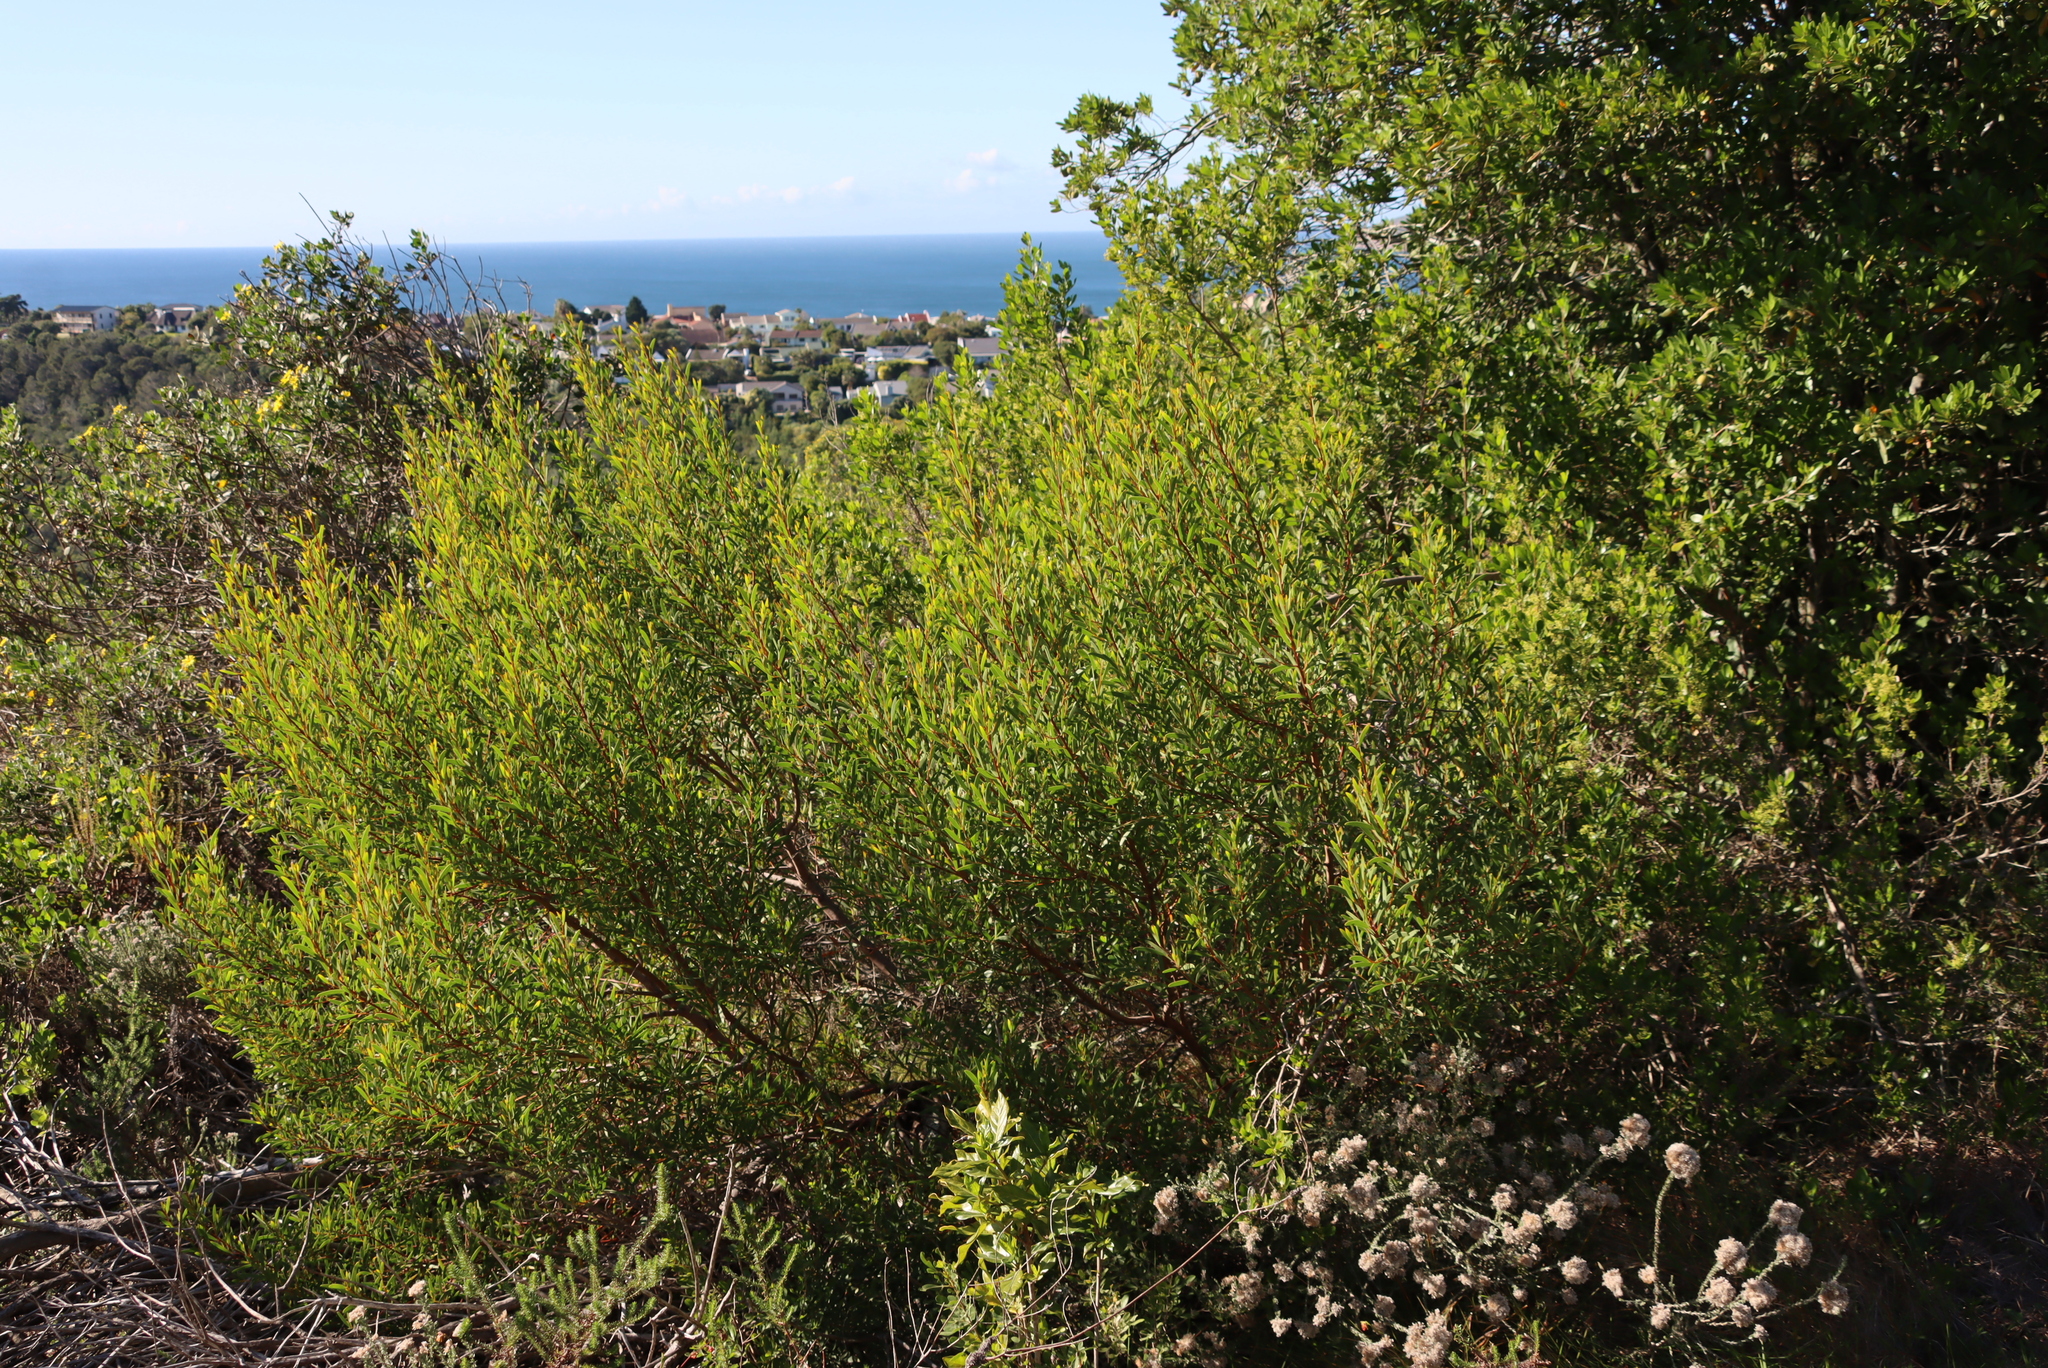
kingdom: Plantae
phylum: Tracheophyta
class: Magnoliopsida
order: Fabales
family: Fabaceae
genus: Acacia
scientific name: Acacia cyclops
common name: Coastal wattle
